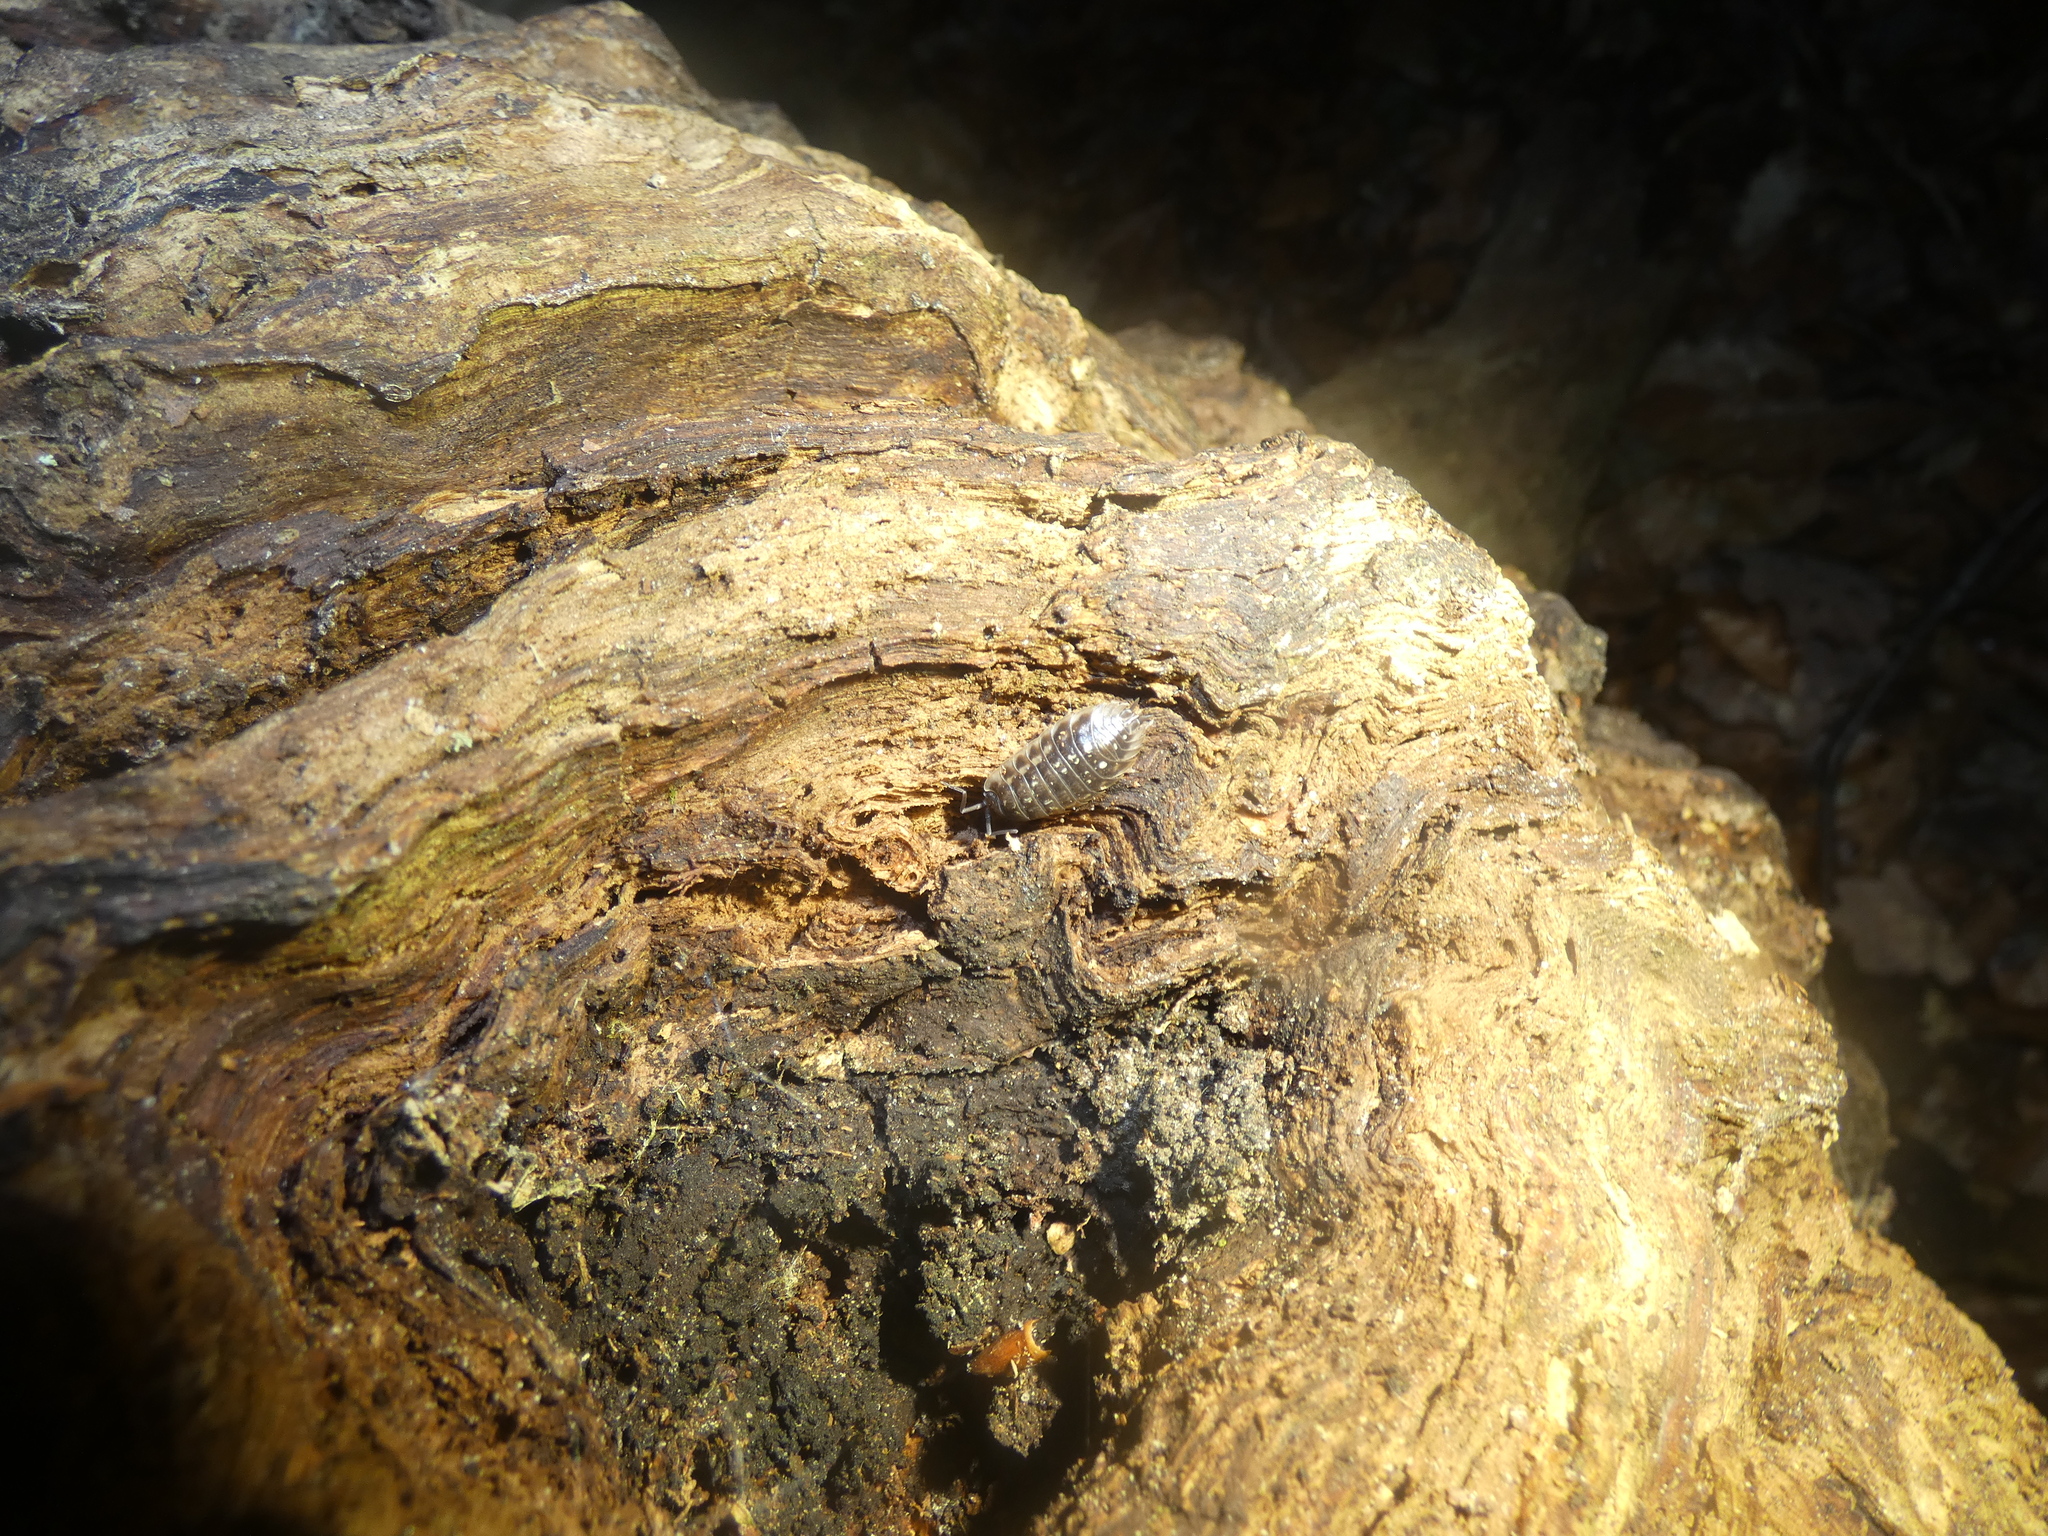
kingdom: Animalia
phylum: Arthropoda
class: Malacostraca
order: Isopoda
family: Oniscidae
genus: Oniscus
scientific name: Oniscus asellus
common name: Common shiny woodlouse
